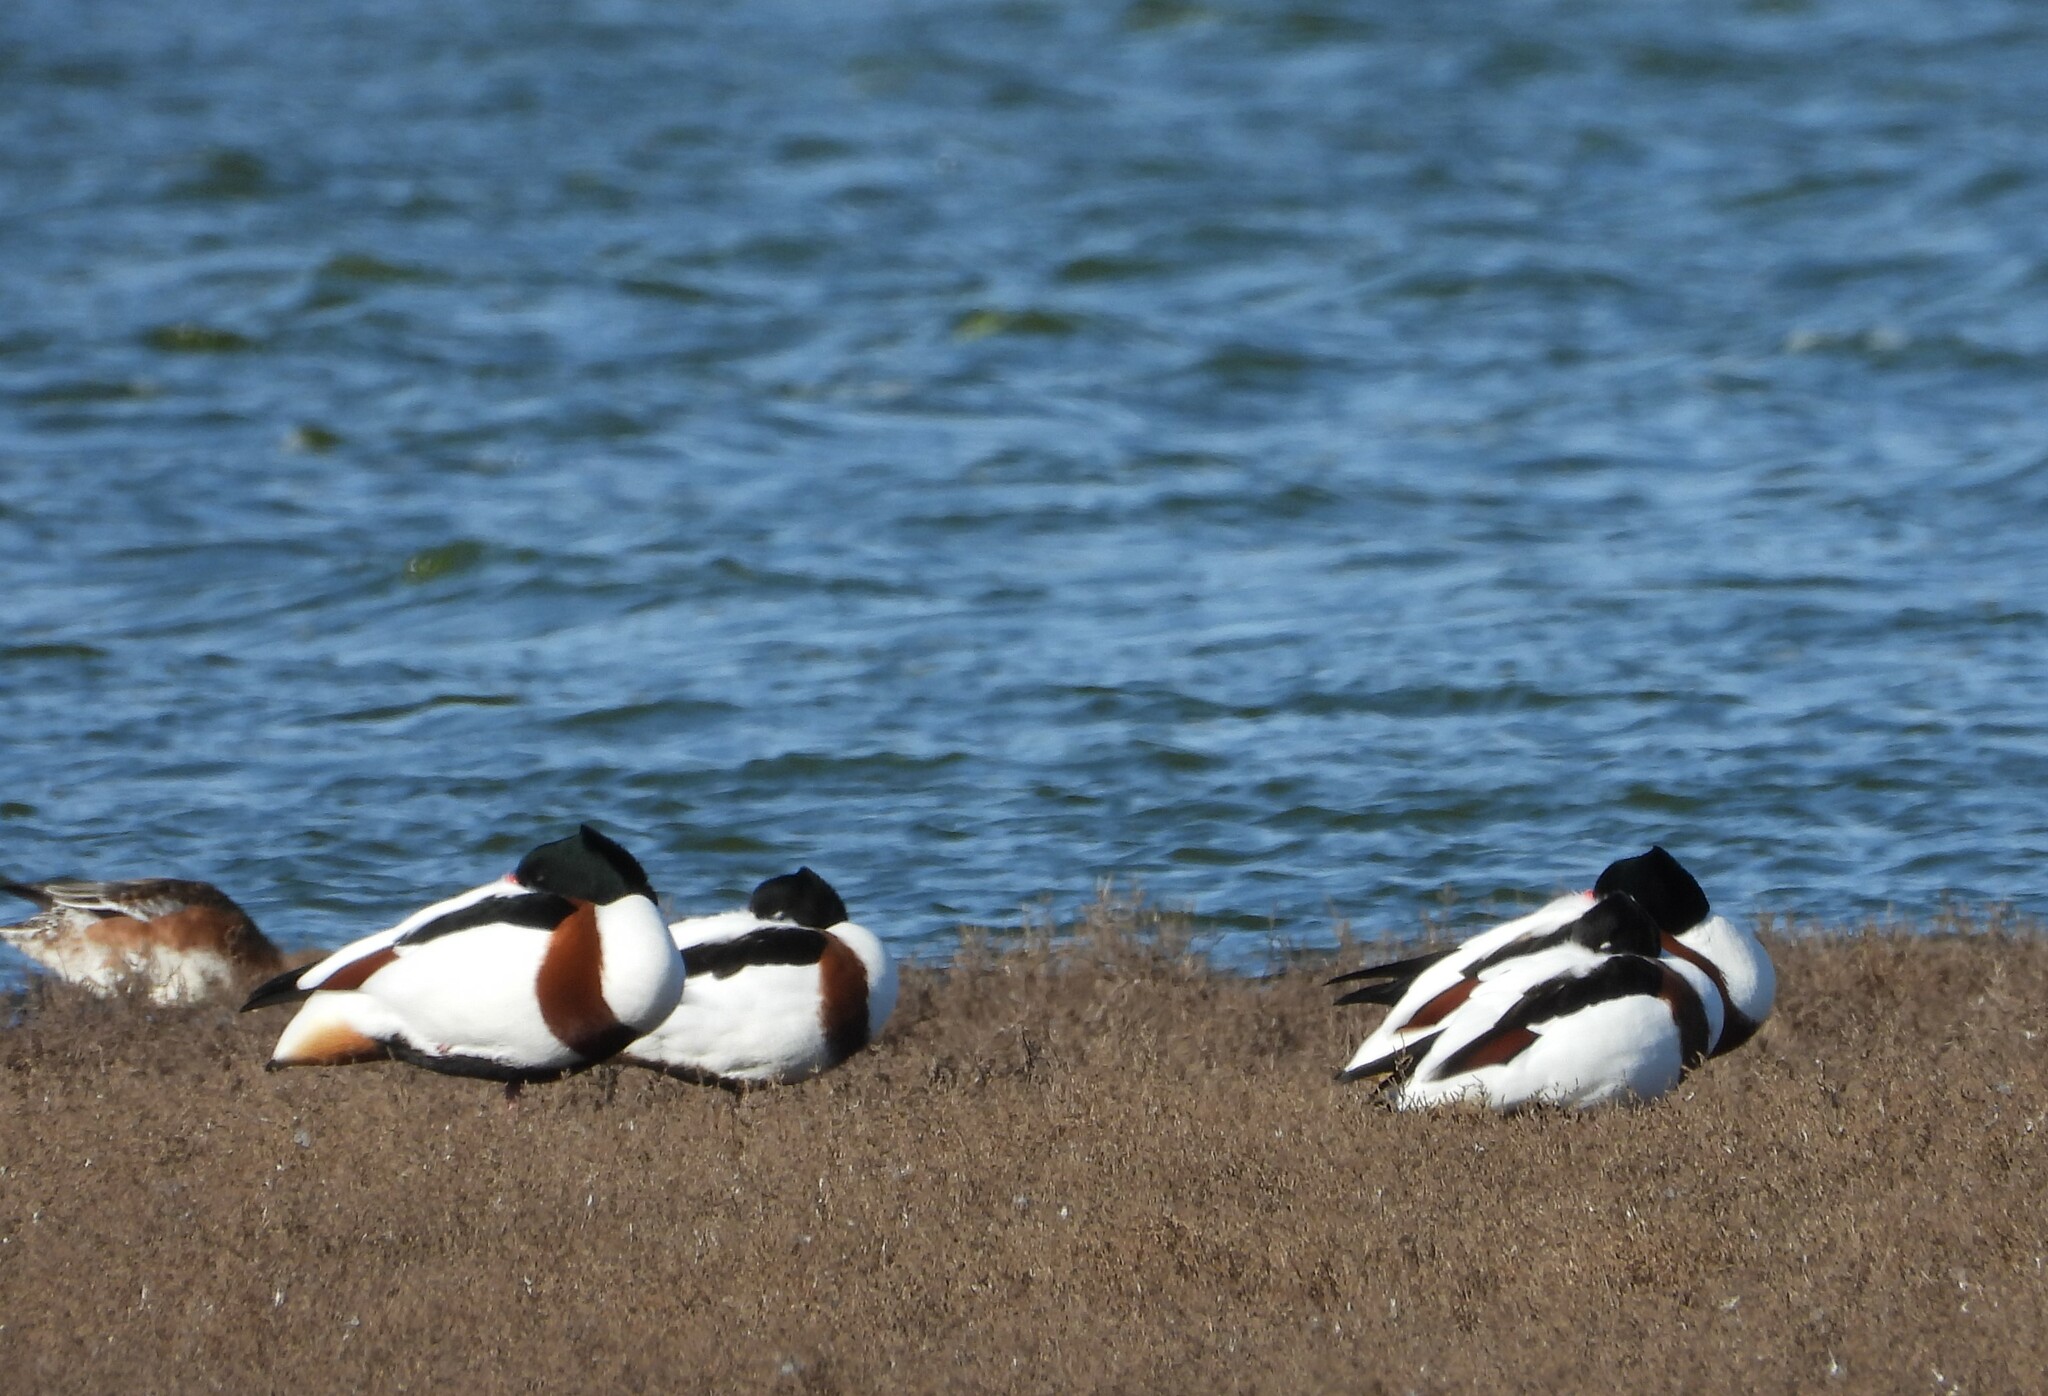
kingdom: Animalia
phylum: Chordata
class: Aves
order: Anseriformes
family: Anatidae
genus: Tadorna
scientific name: Tadorna tadorna
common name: Common shelduck
